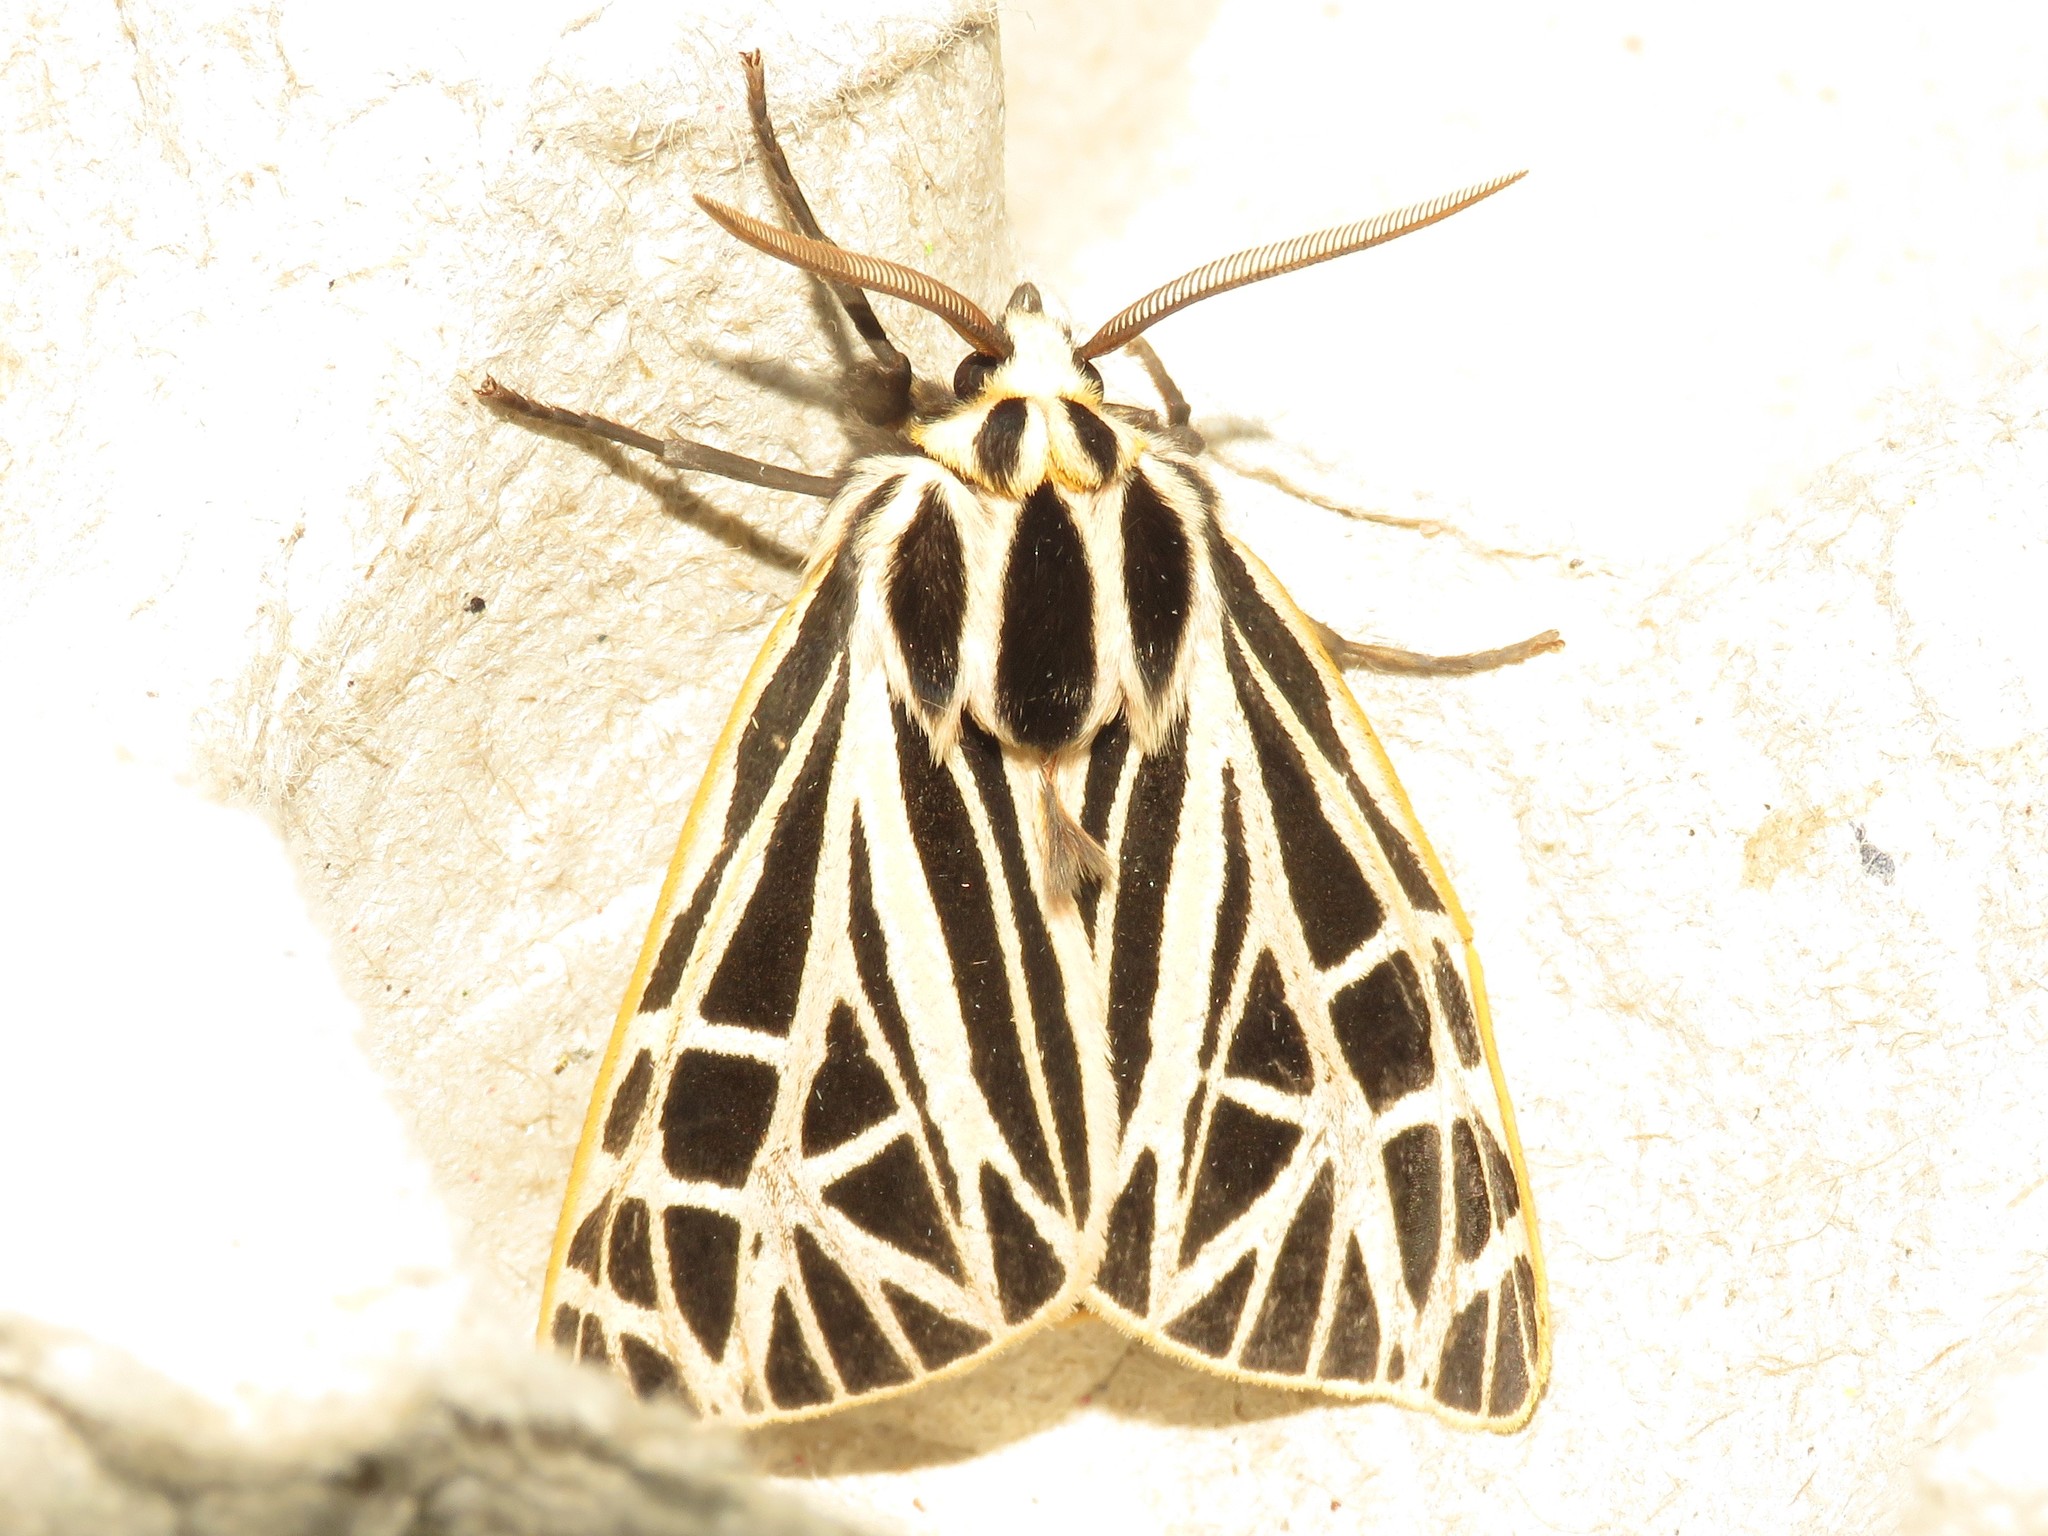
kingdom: Animalia
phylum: Arthropoda
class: Insecta
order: Lepidoptera
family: Erebidae
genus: Grammia
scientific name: Grammia virgo
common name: Virgin tiger moth
